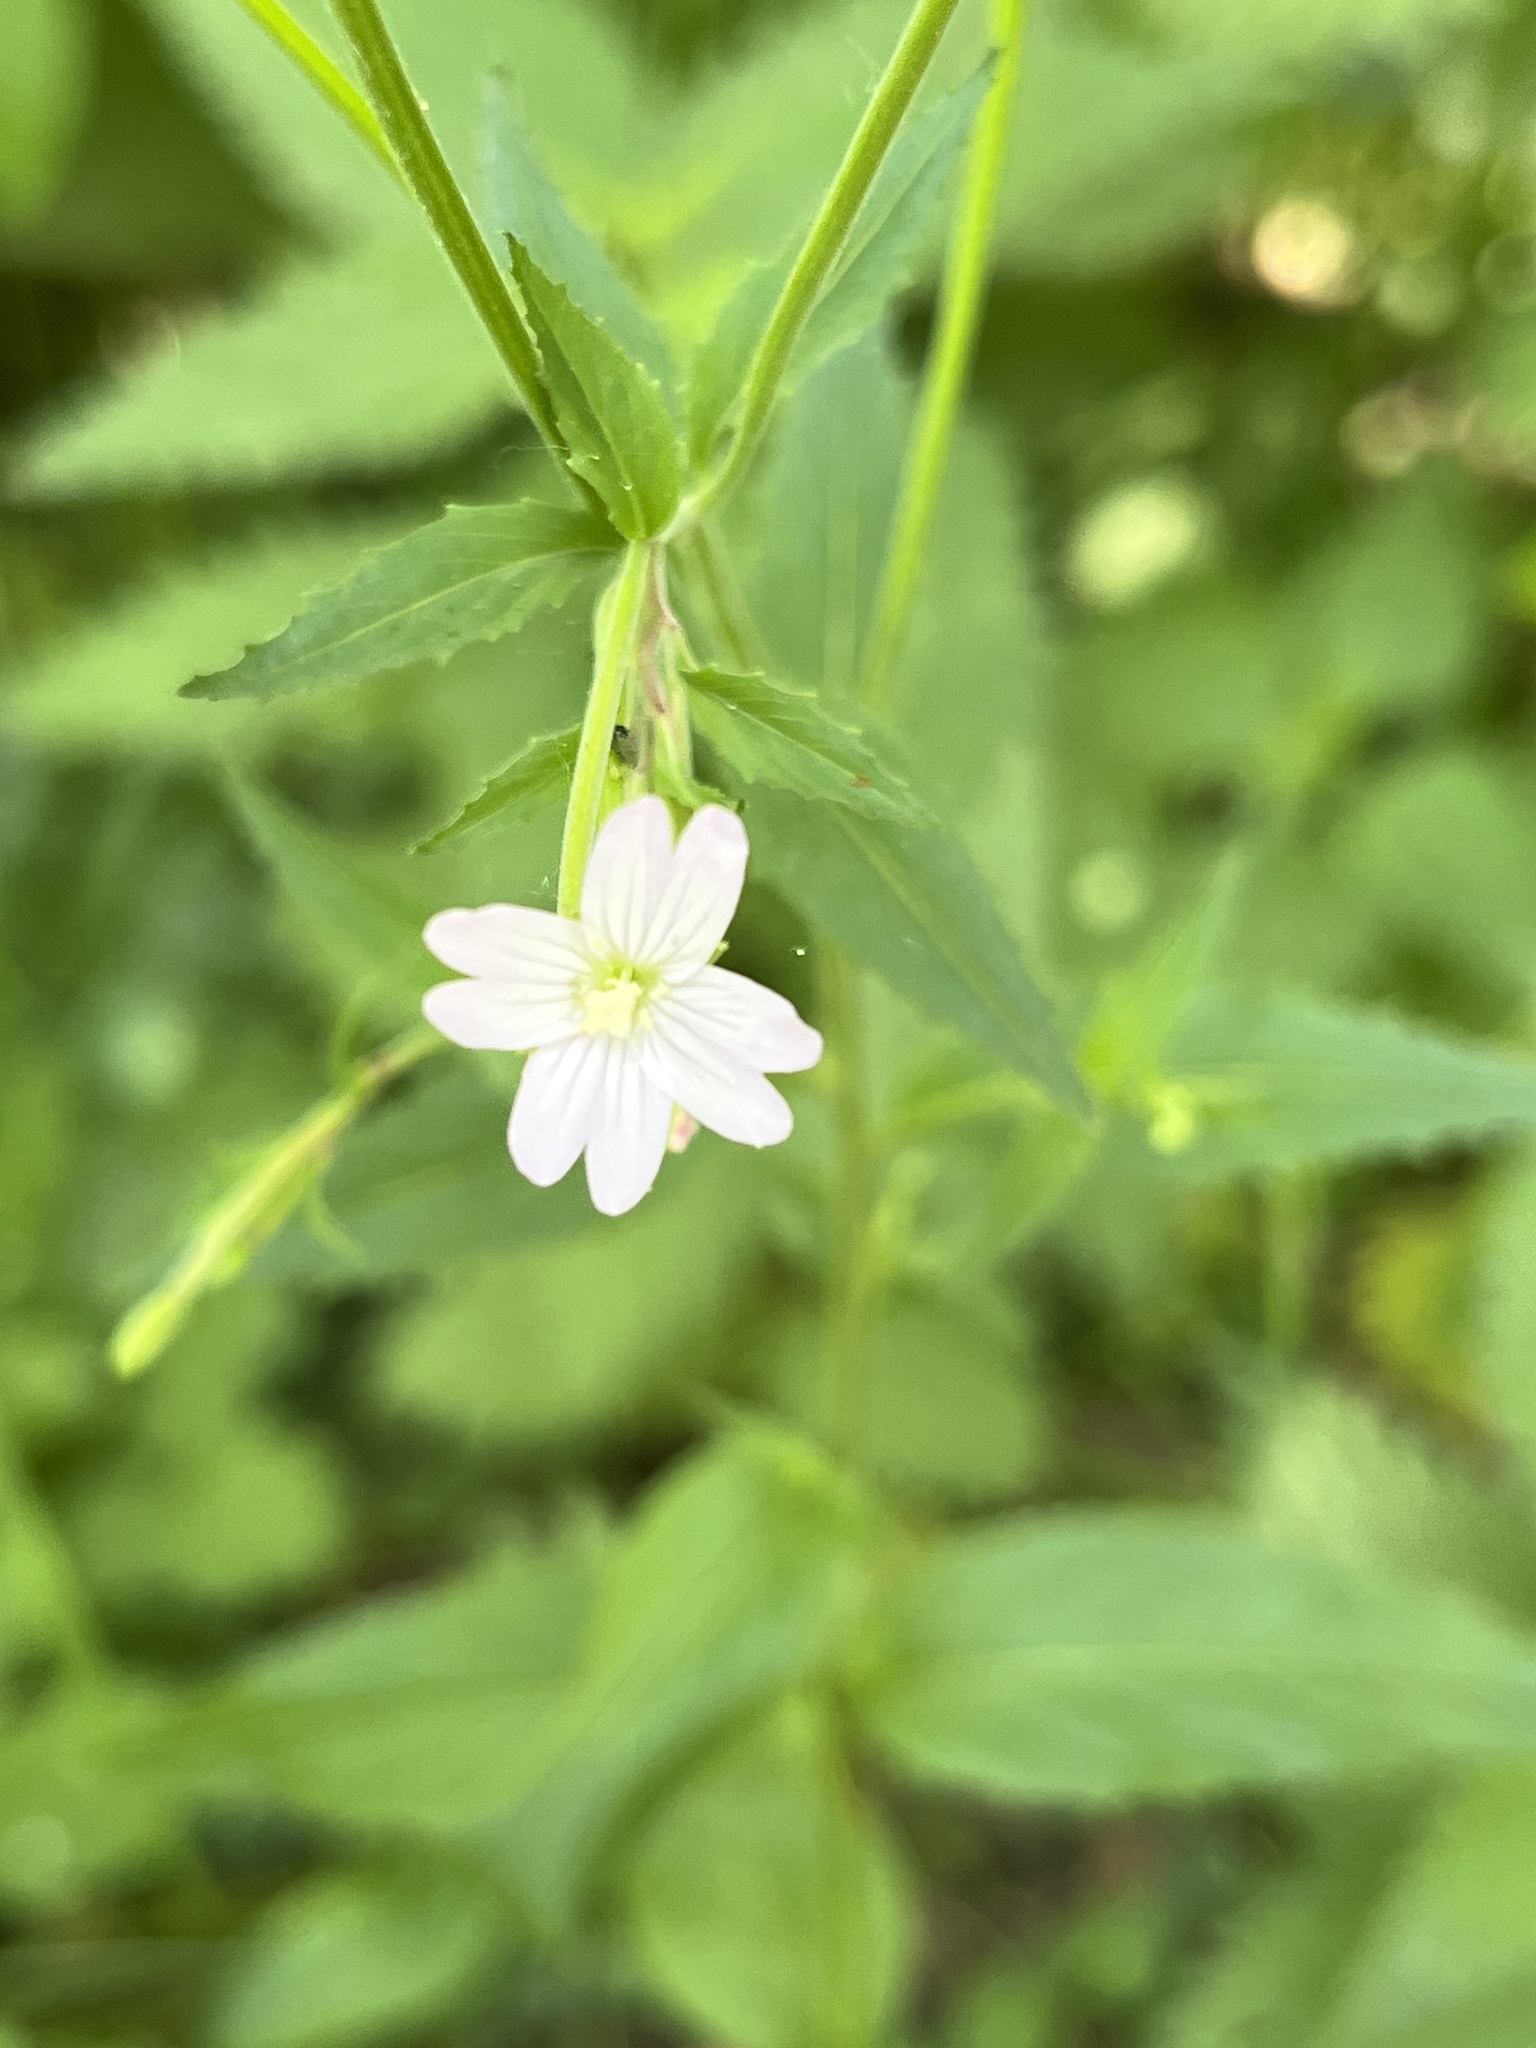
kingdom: Plantae
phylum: Tracheophyta
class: Magnoliopsida
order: Myrtales
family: Onagraceae
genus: Epilobium
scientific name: Epilobium montanum
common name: Broad-leaved willowherb
